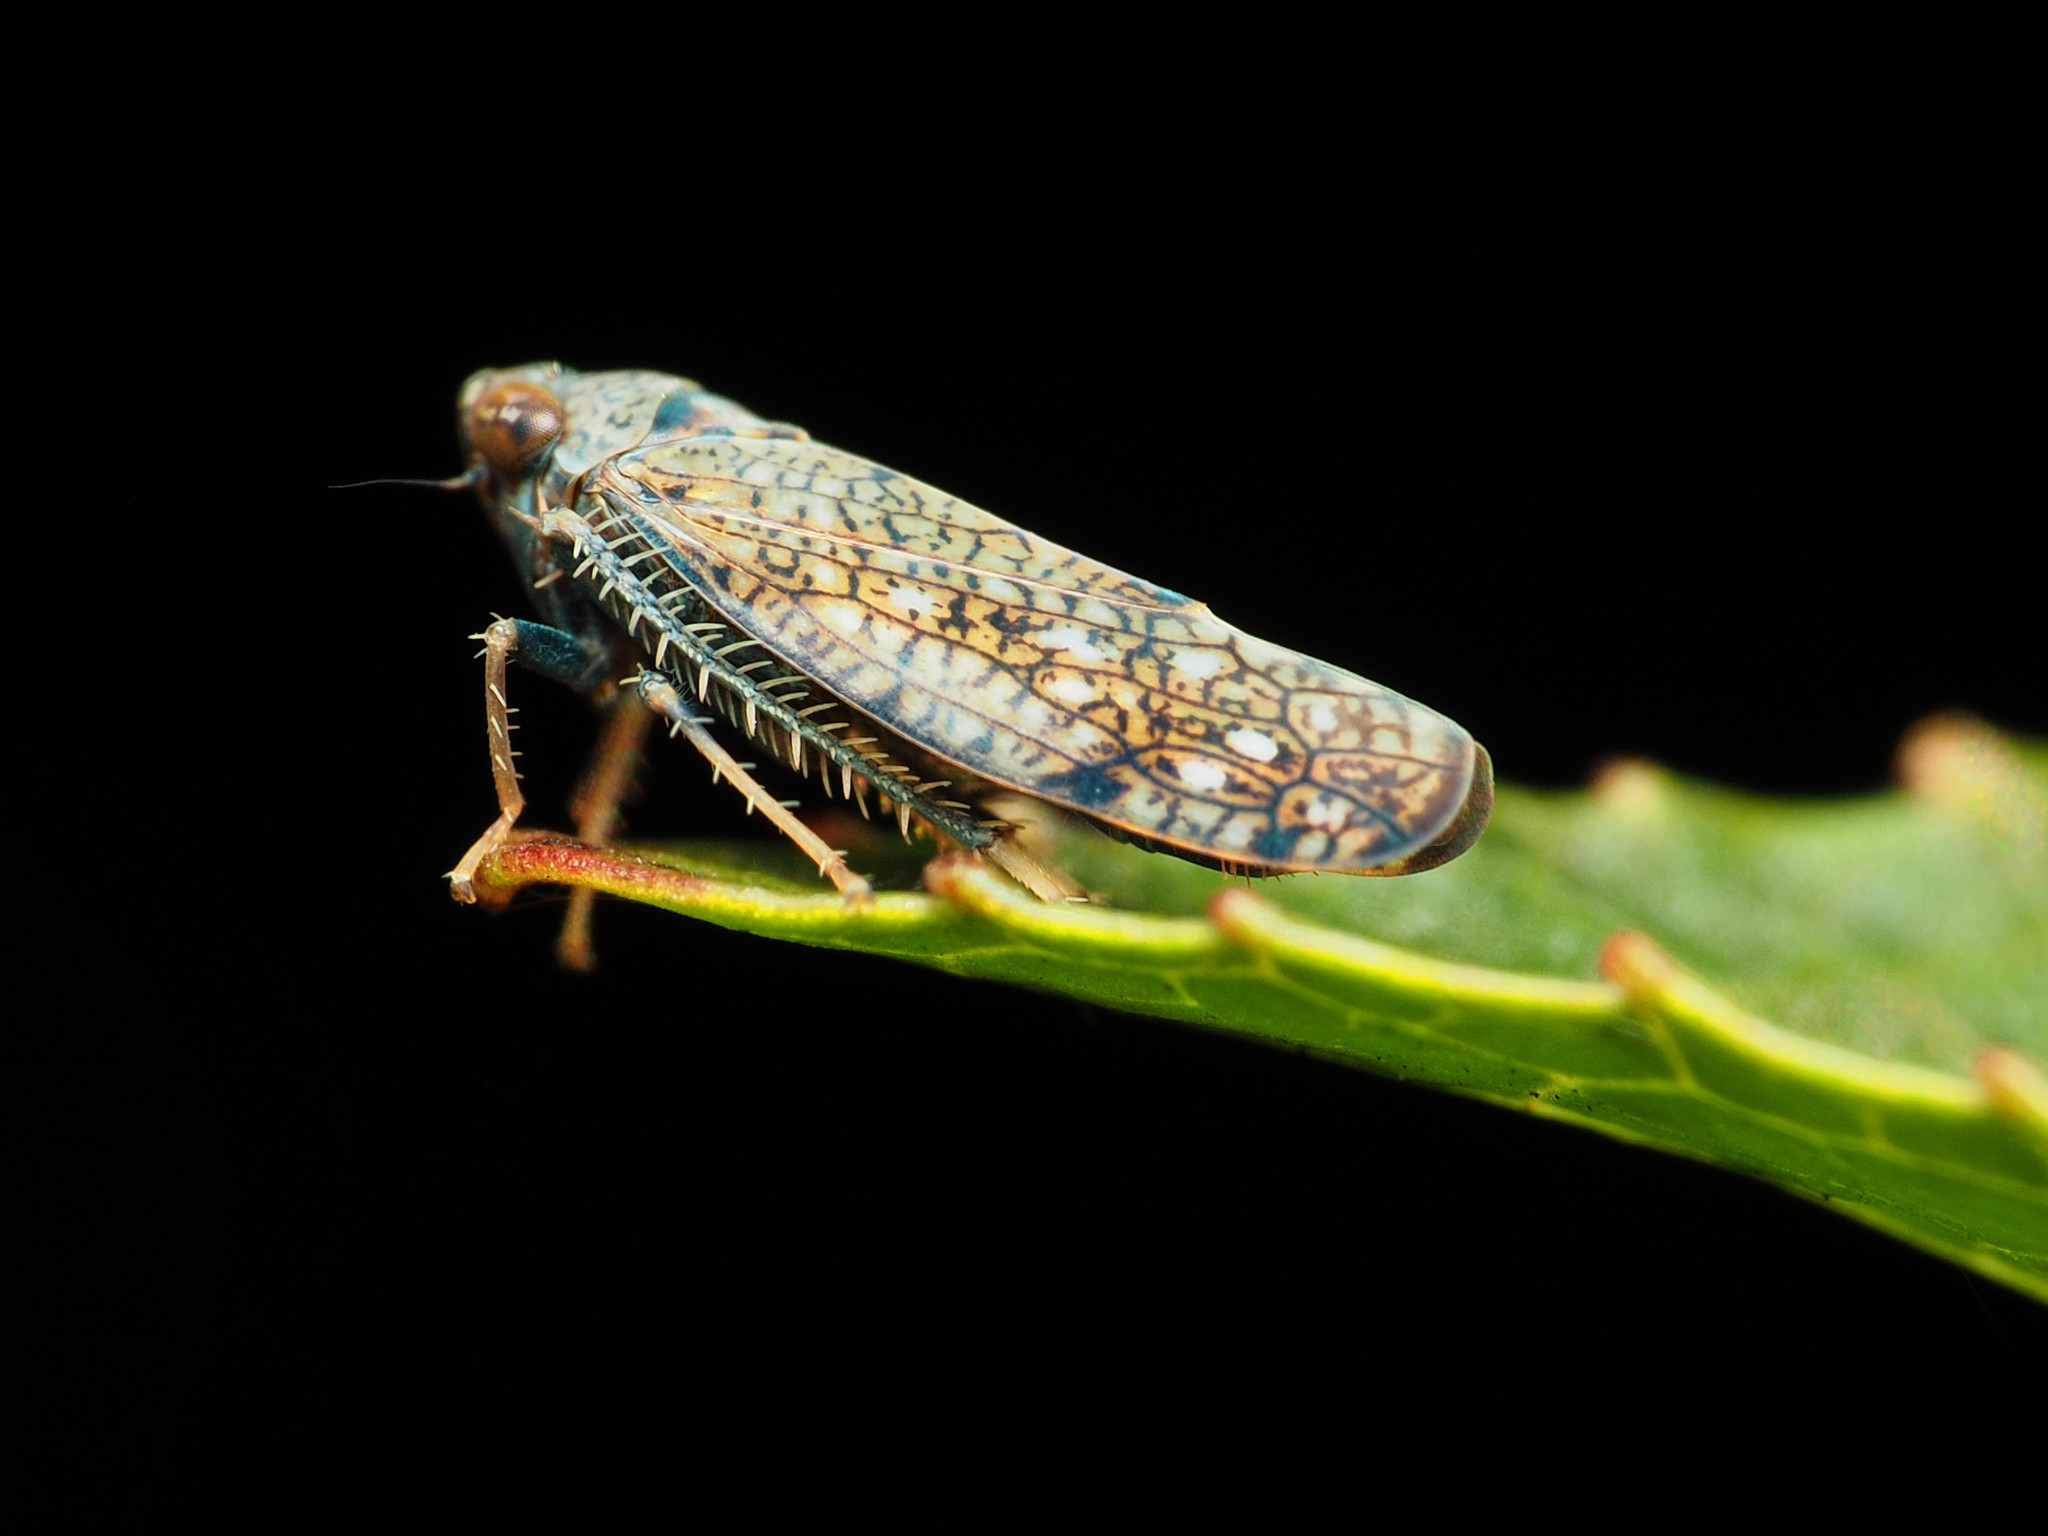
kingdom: Animalia
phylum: Arthropoda
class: Insecta
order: Hemiptera
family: Cicadellidae
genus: Orientus
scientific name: Orientus ishidae
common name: Japanese leafhopper
